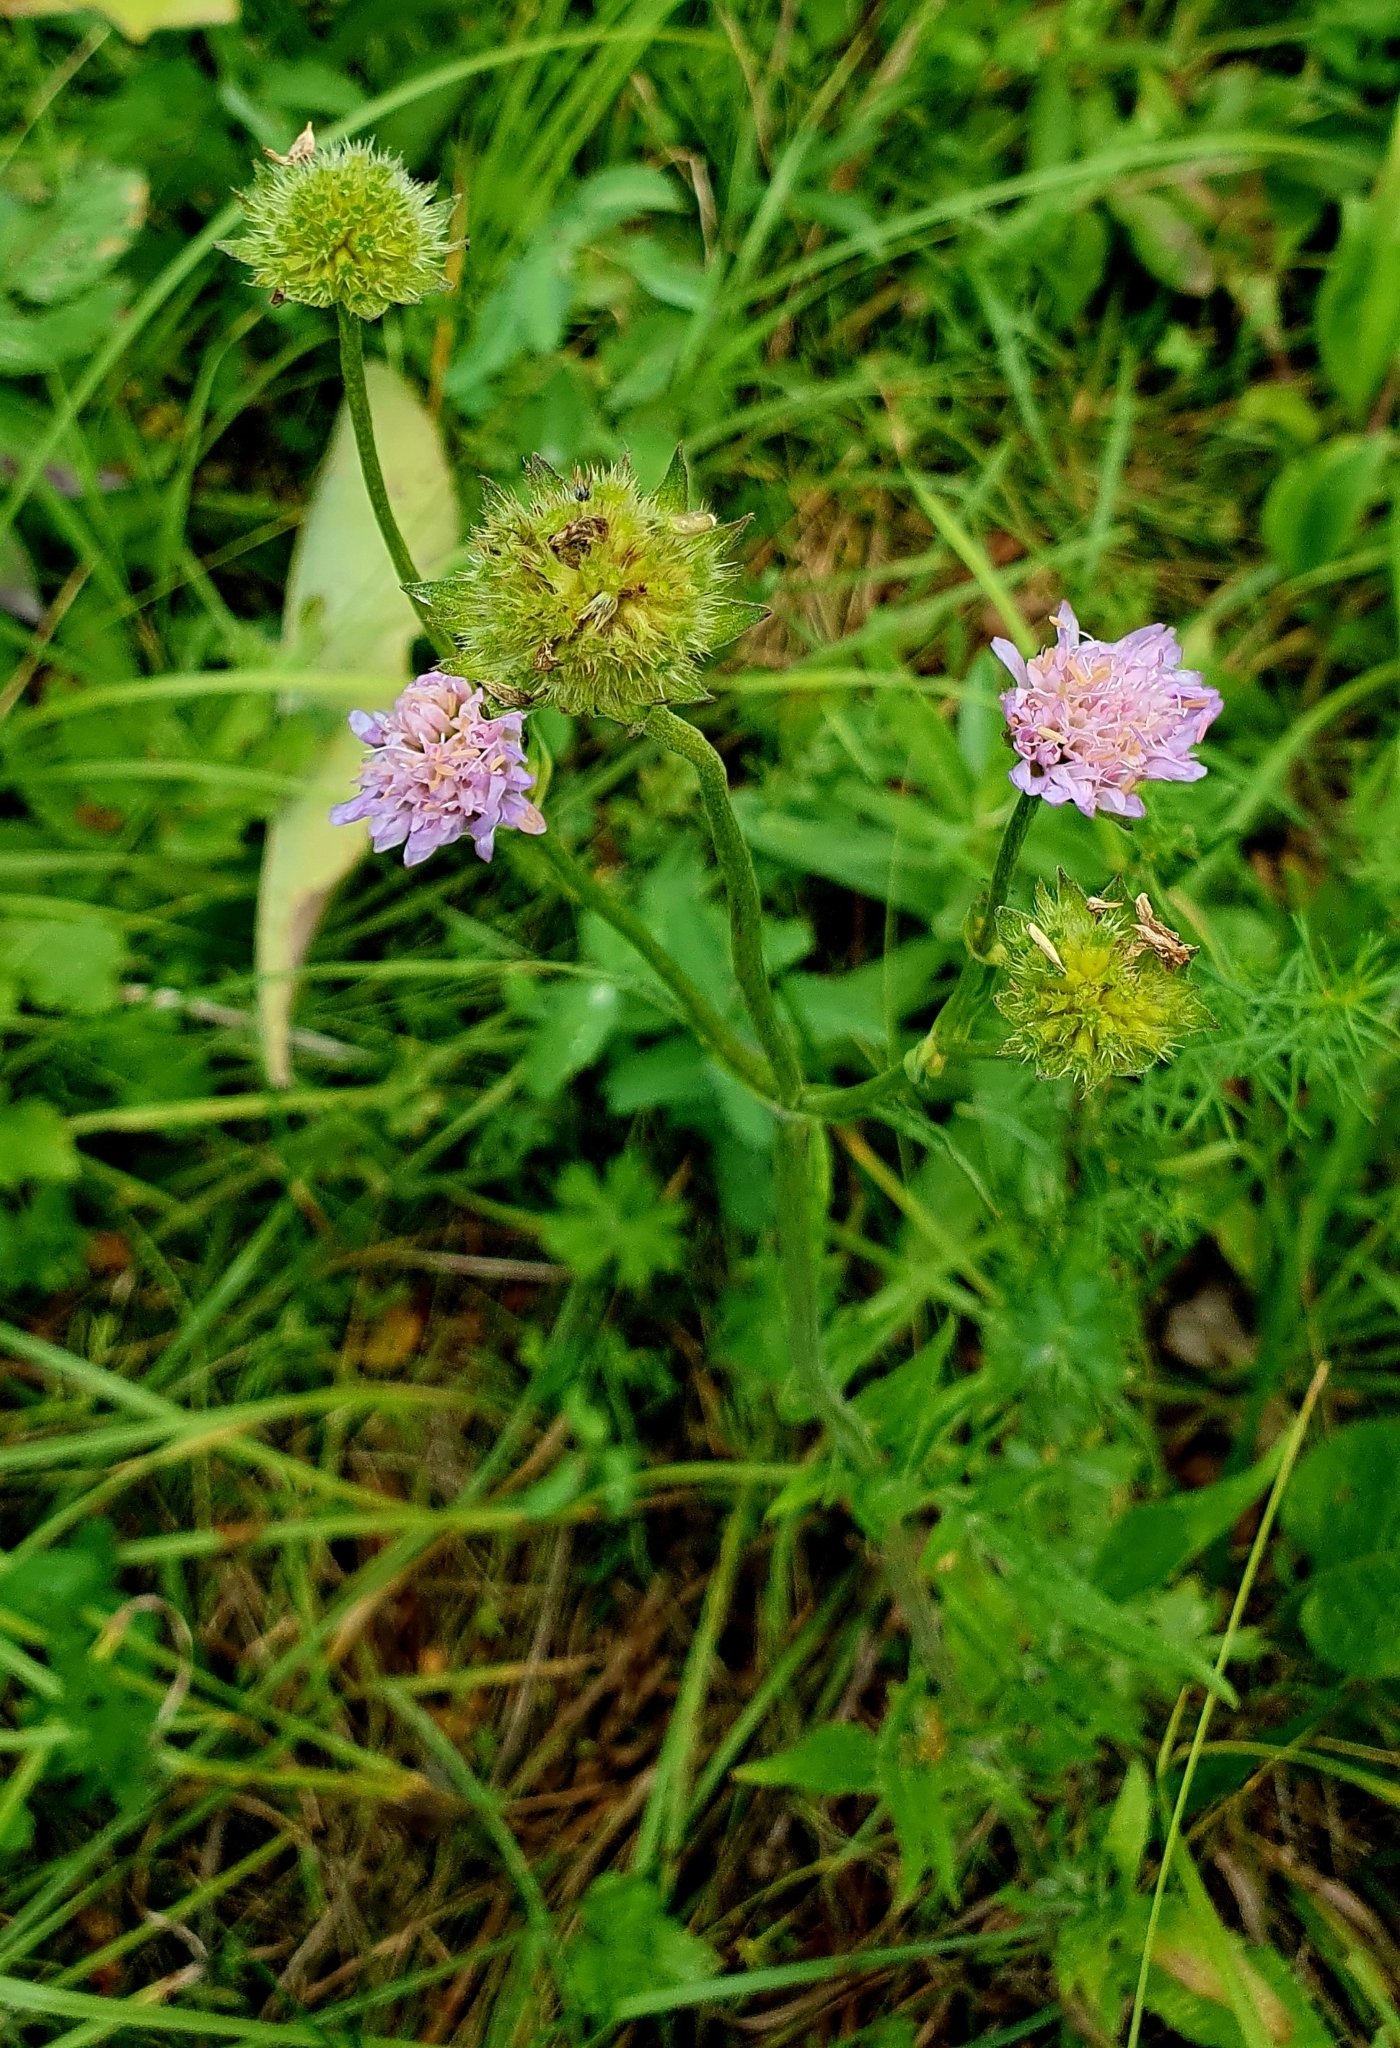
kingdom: Plantae
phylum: Tracheophyta
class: Magnoliopsida
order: Dipsacales
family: Caprifoliaceae
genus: Knautia
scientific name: Knautia arvensis
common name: Field scabiosa
